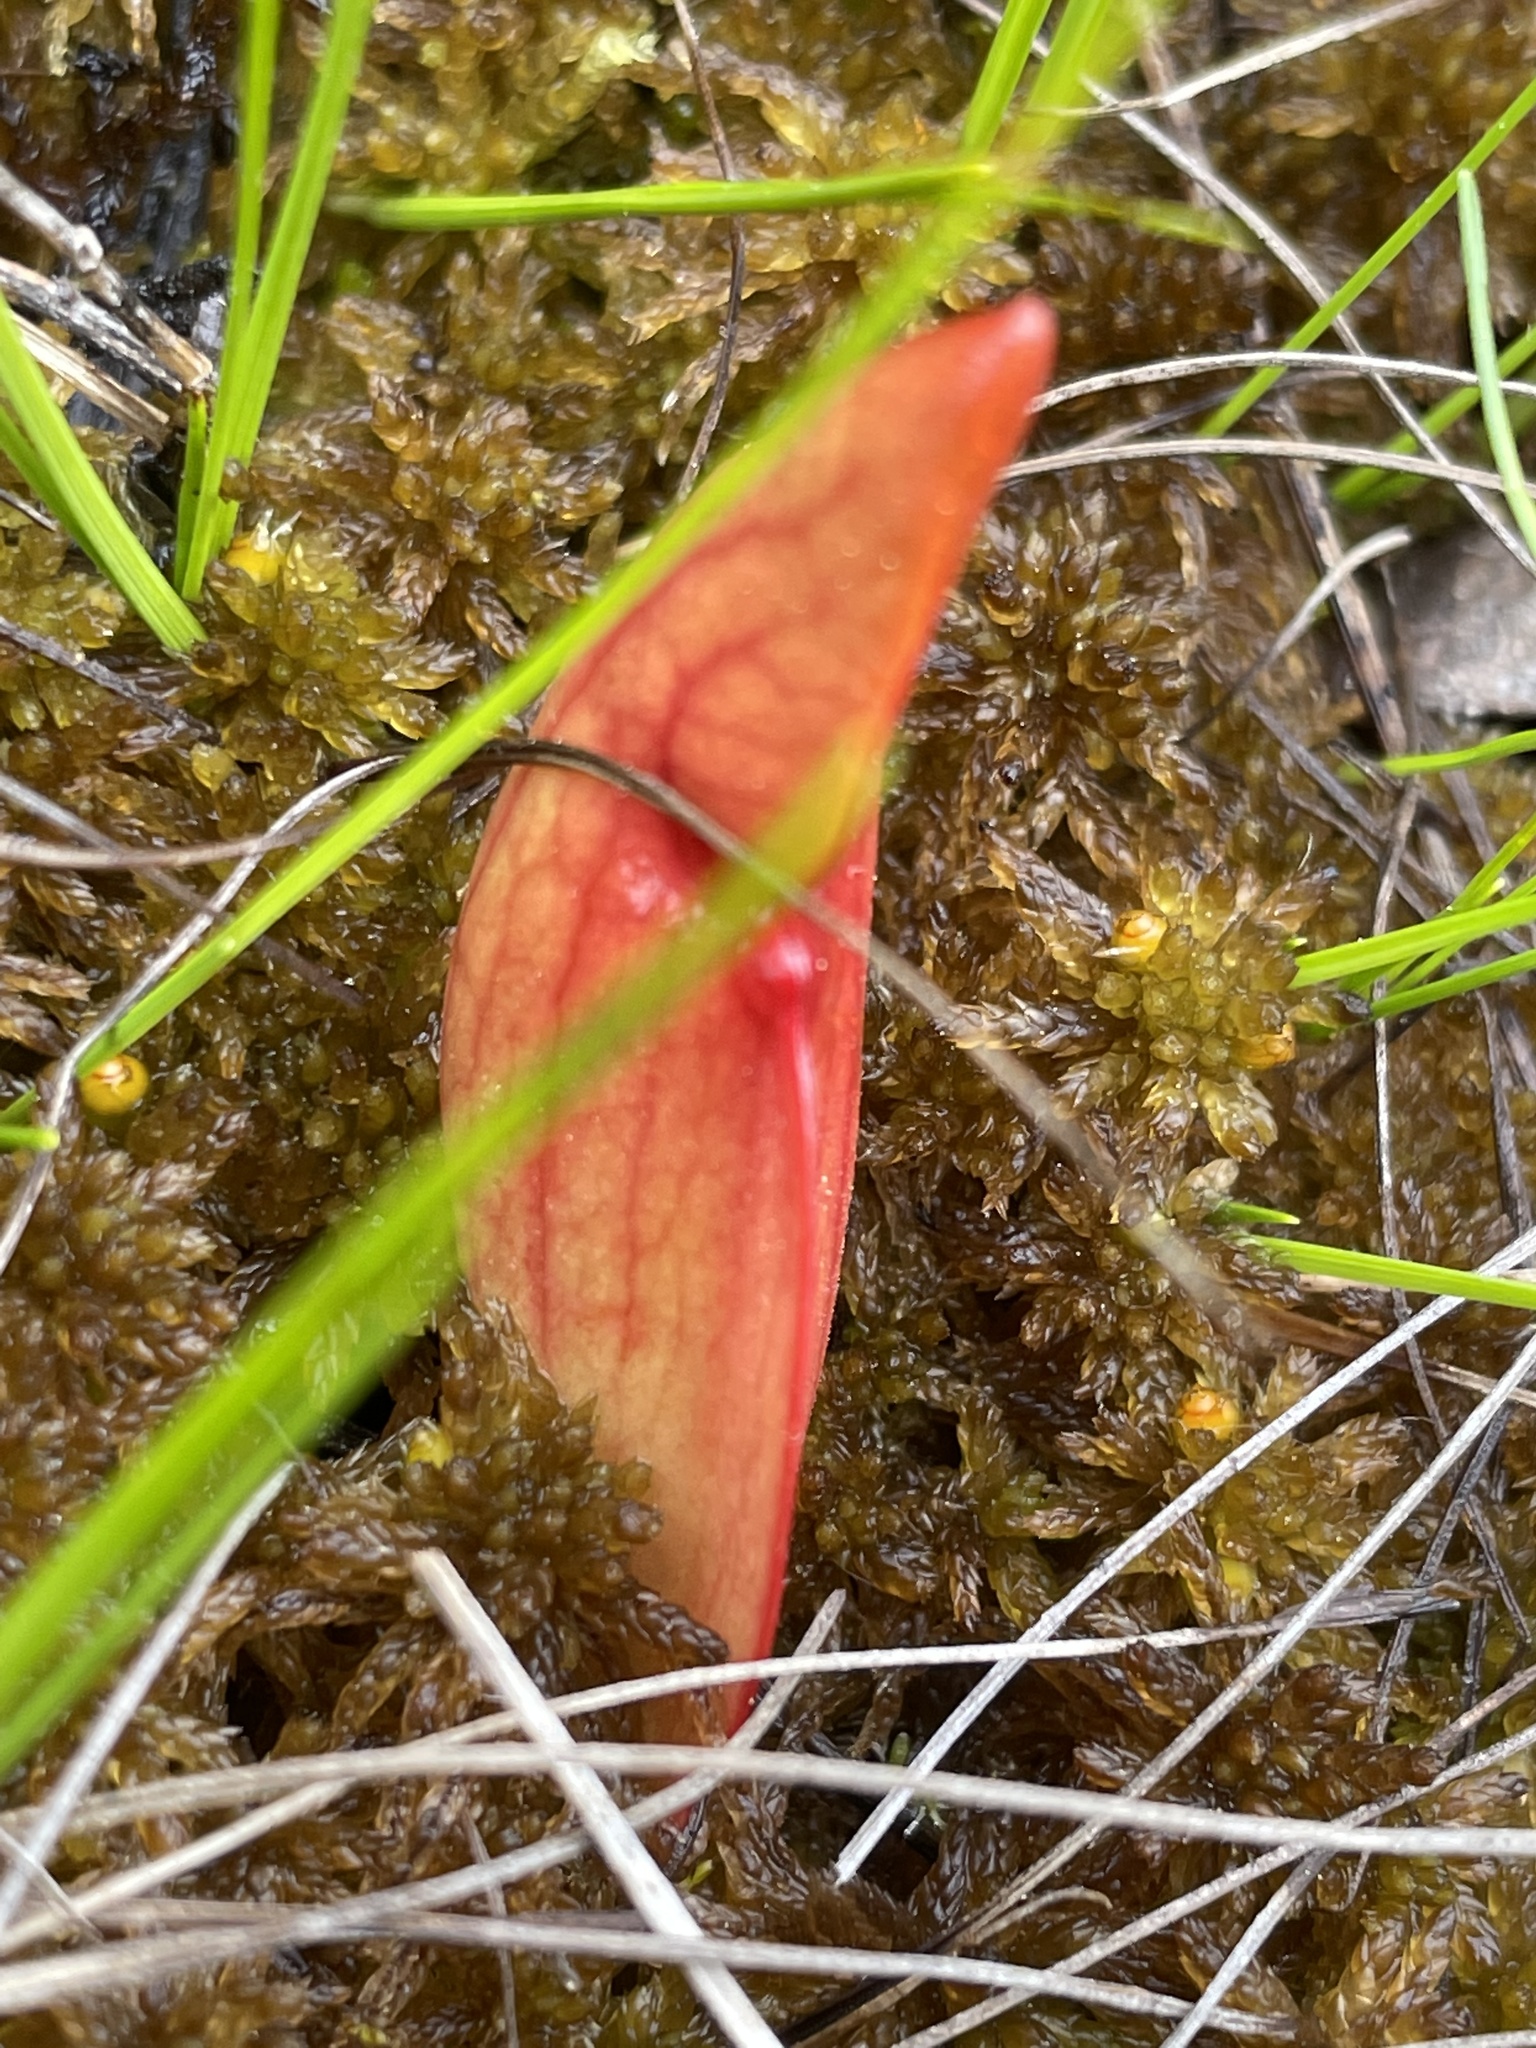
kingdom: Plantae
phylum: Tracheophyta
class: Magnoliopsida
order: Ericales
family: Sarraceniaceae
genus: Sarracenia
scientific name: Sarracenia purpurea
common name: Pitcherplant
